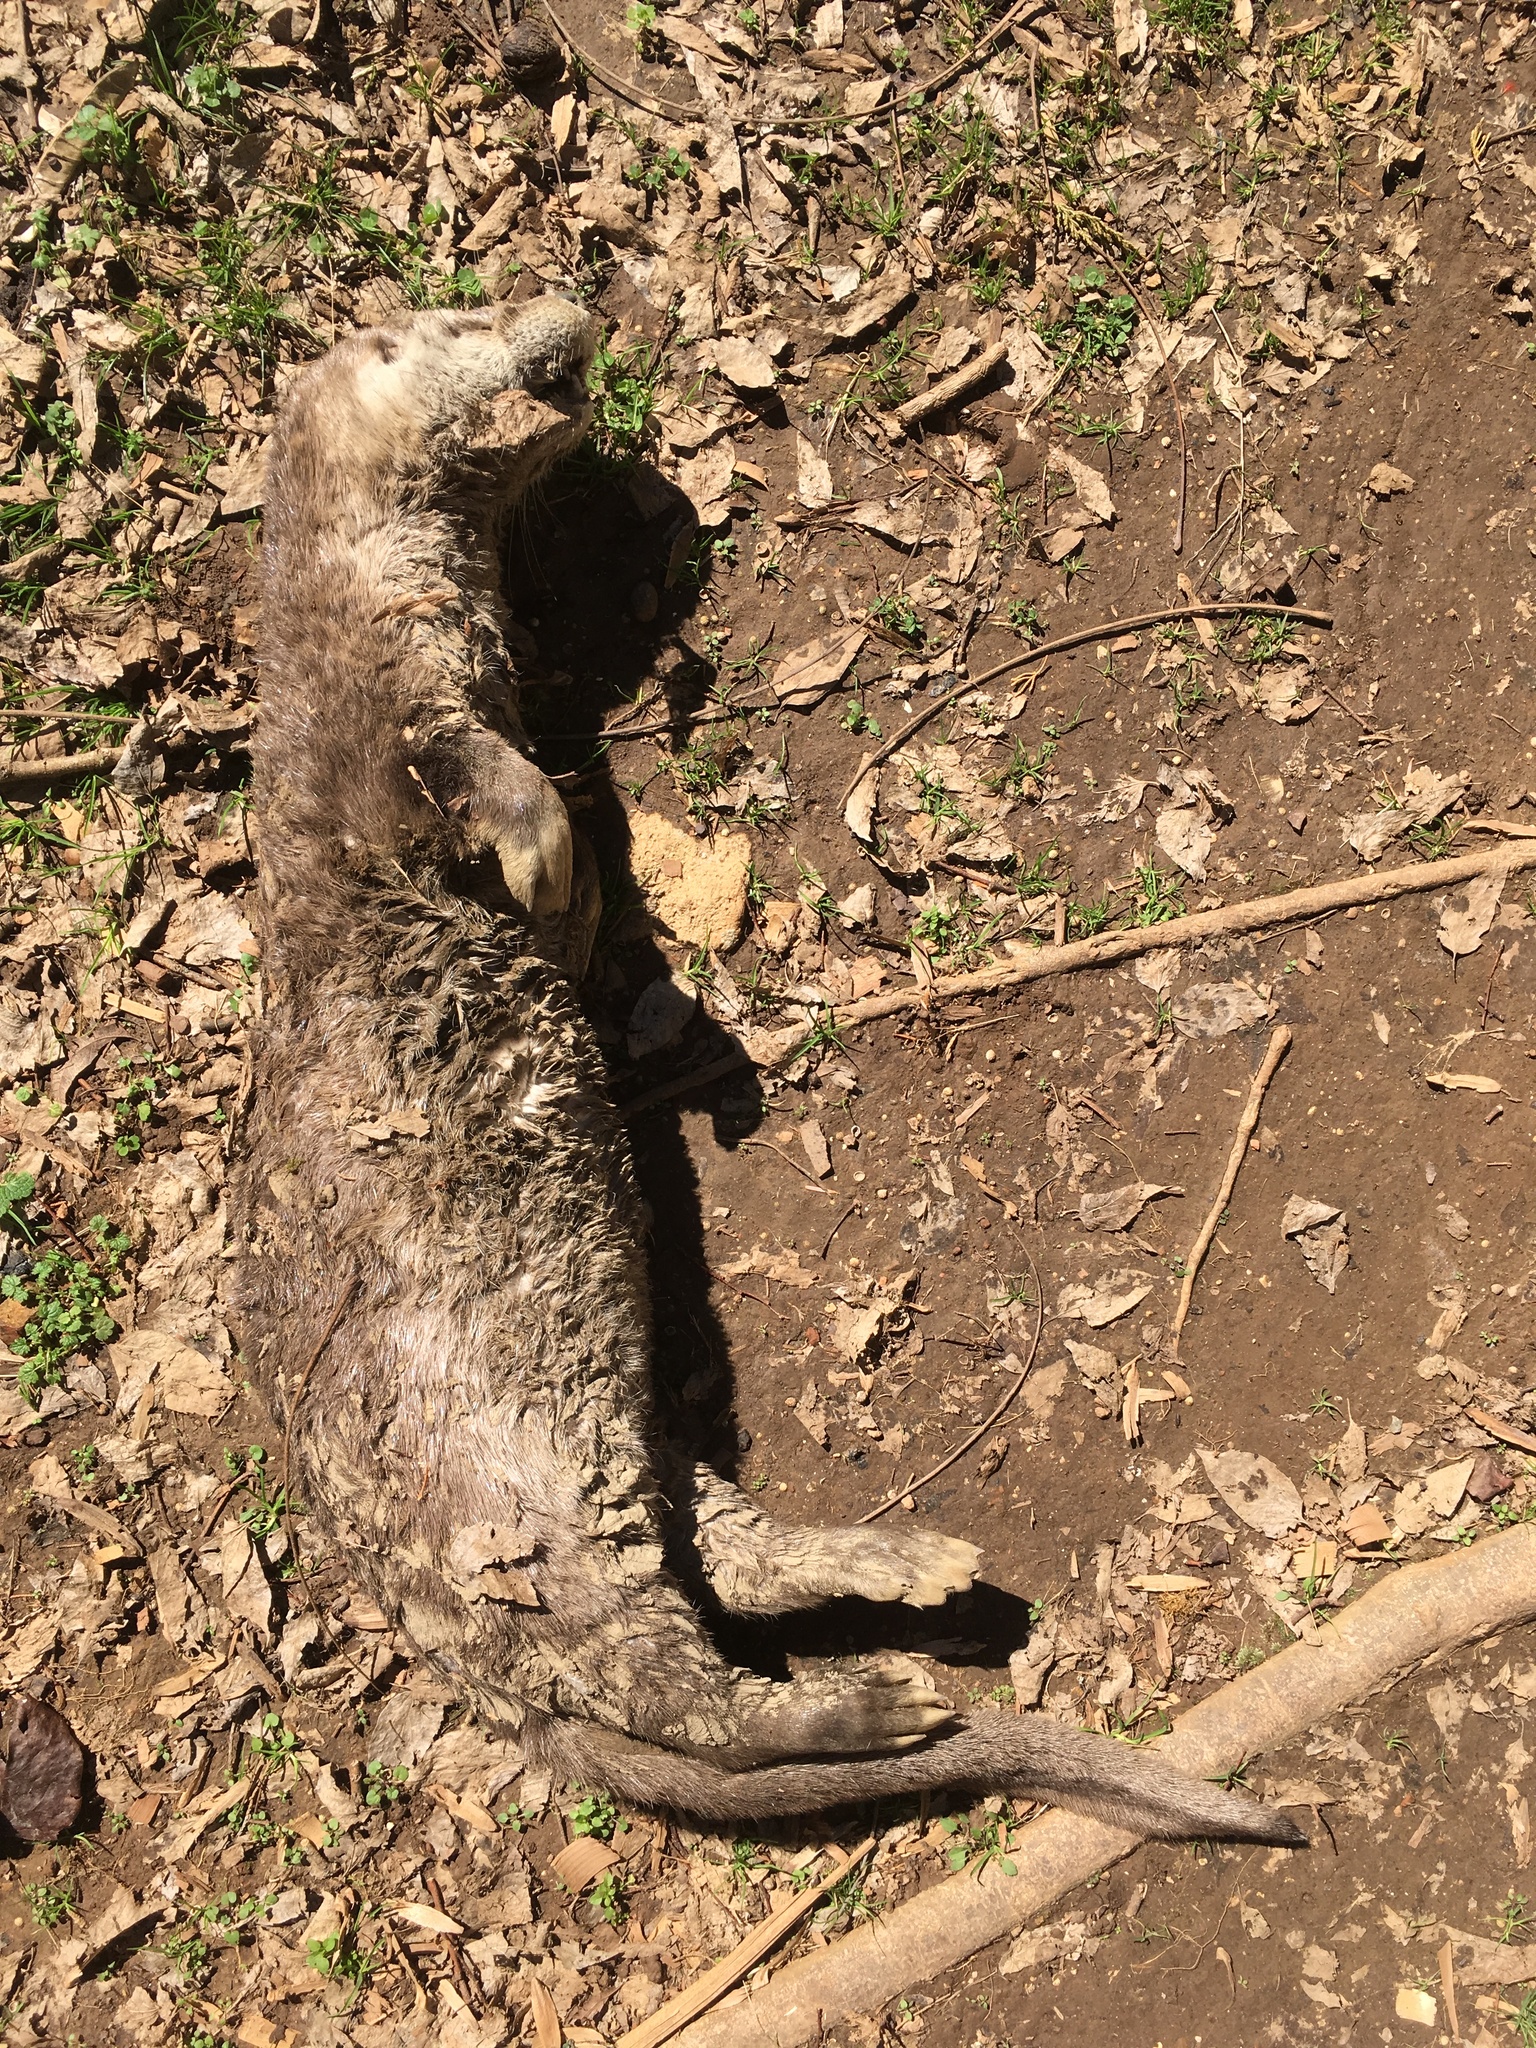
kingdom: Animalia
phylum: Chordata
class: Mammalia
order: Carnivora
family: Mustelidae
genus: Lontra
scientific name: Lontra canadensis
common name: North american river otter
